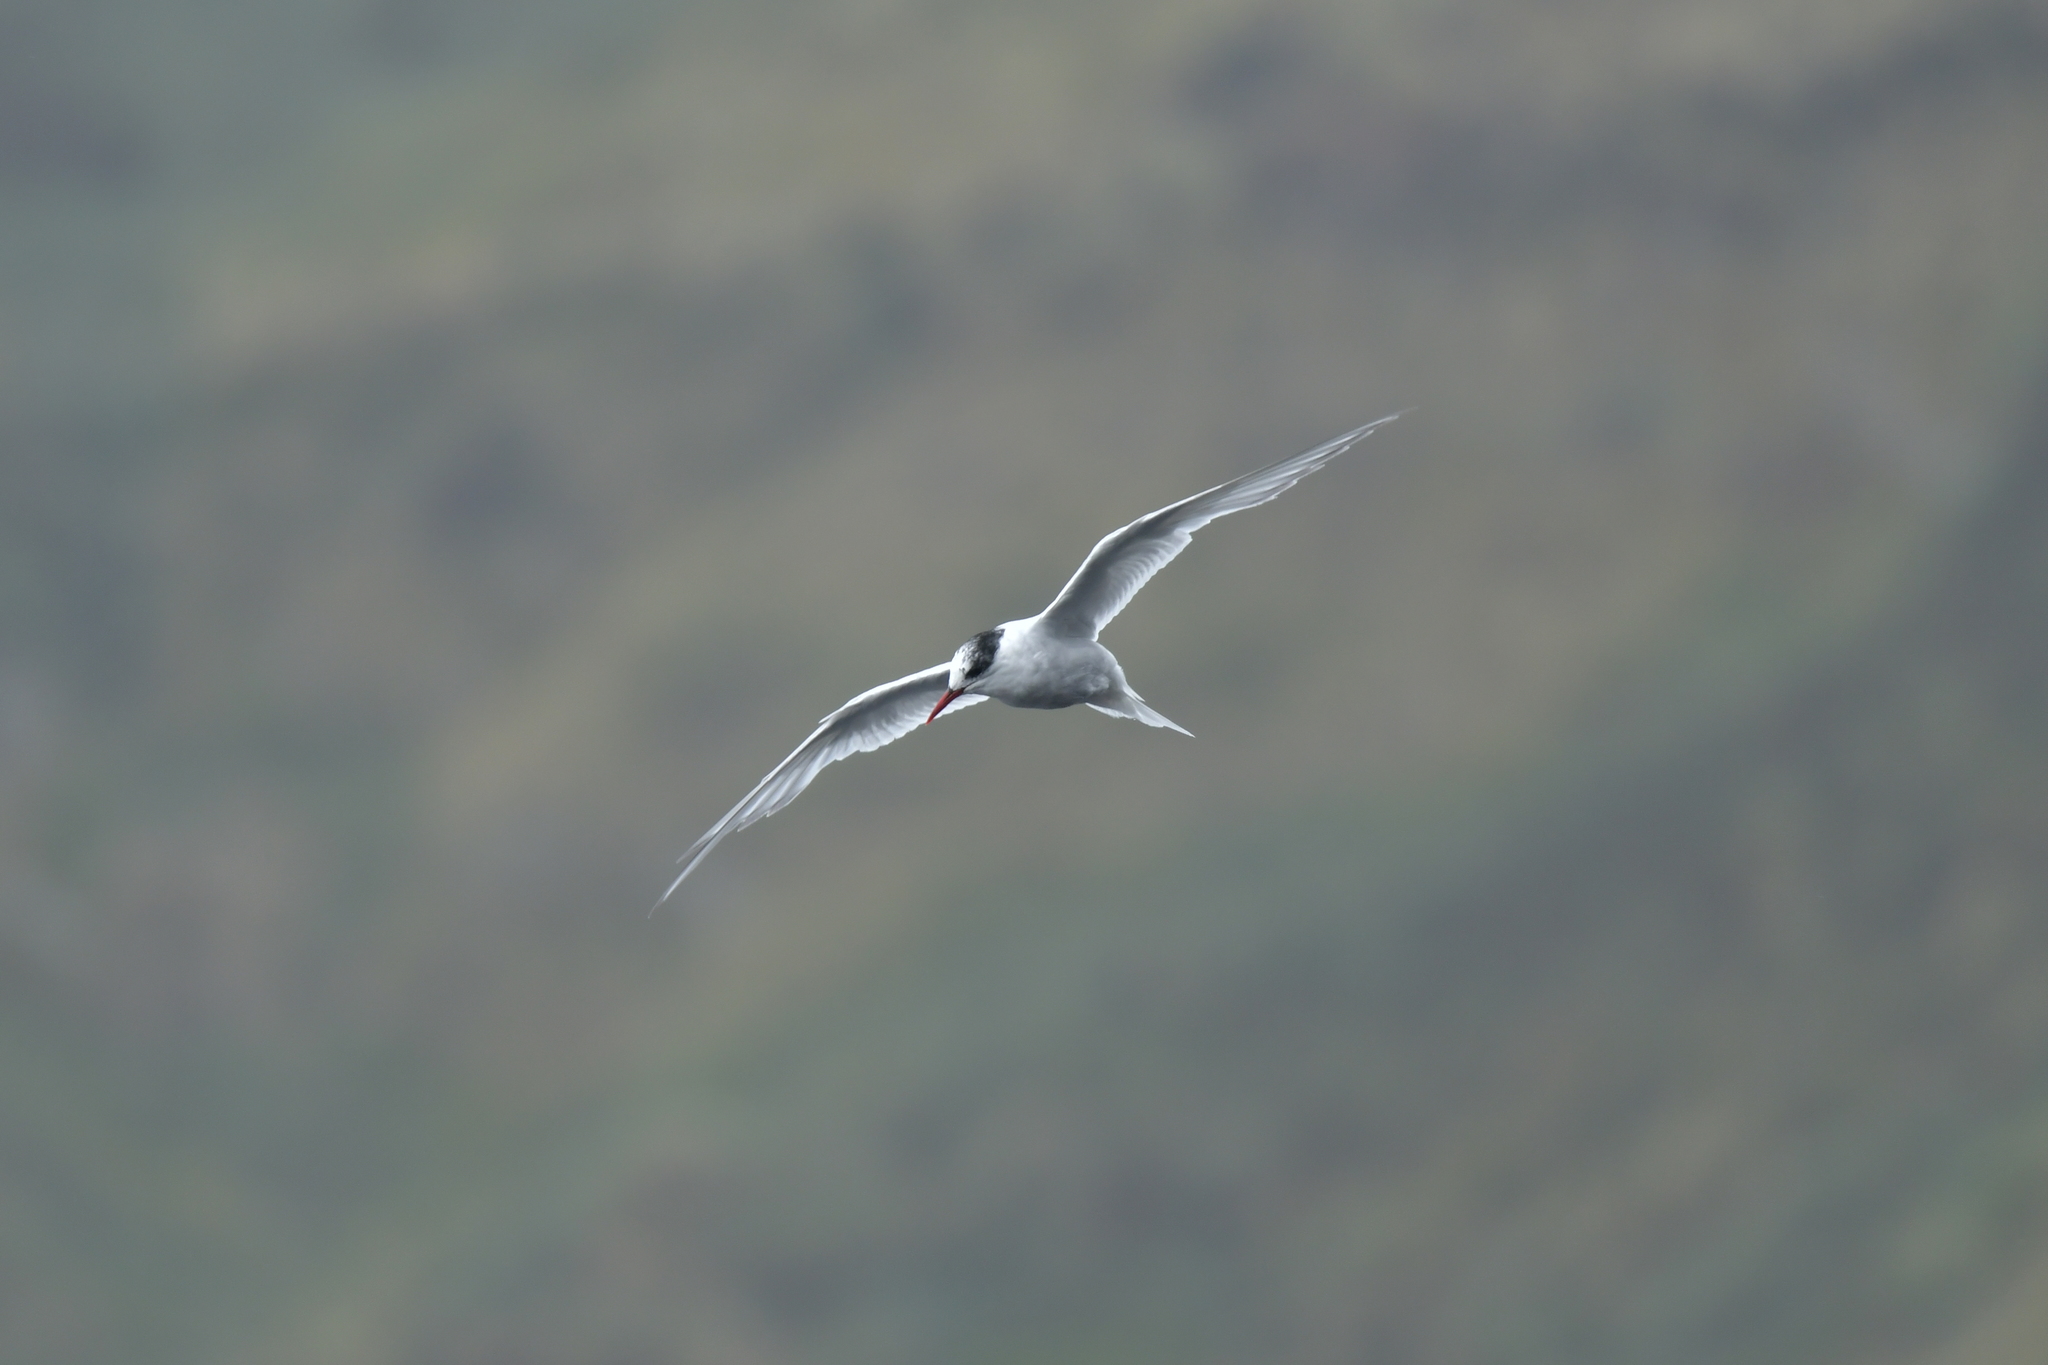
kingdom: Animalia
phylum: Chordata
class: Aves
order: Charadriiformes
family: Laridae
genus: Sterna
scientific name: Sterna vittata
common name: Antarctic tern
